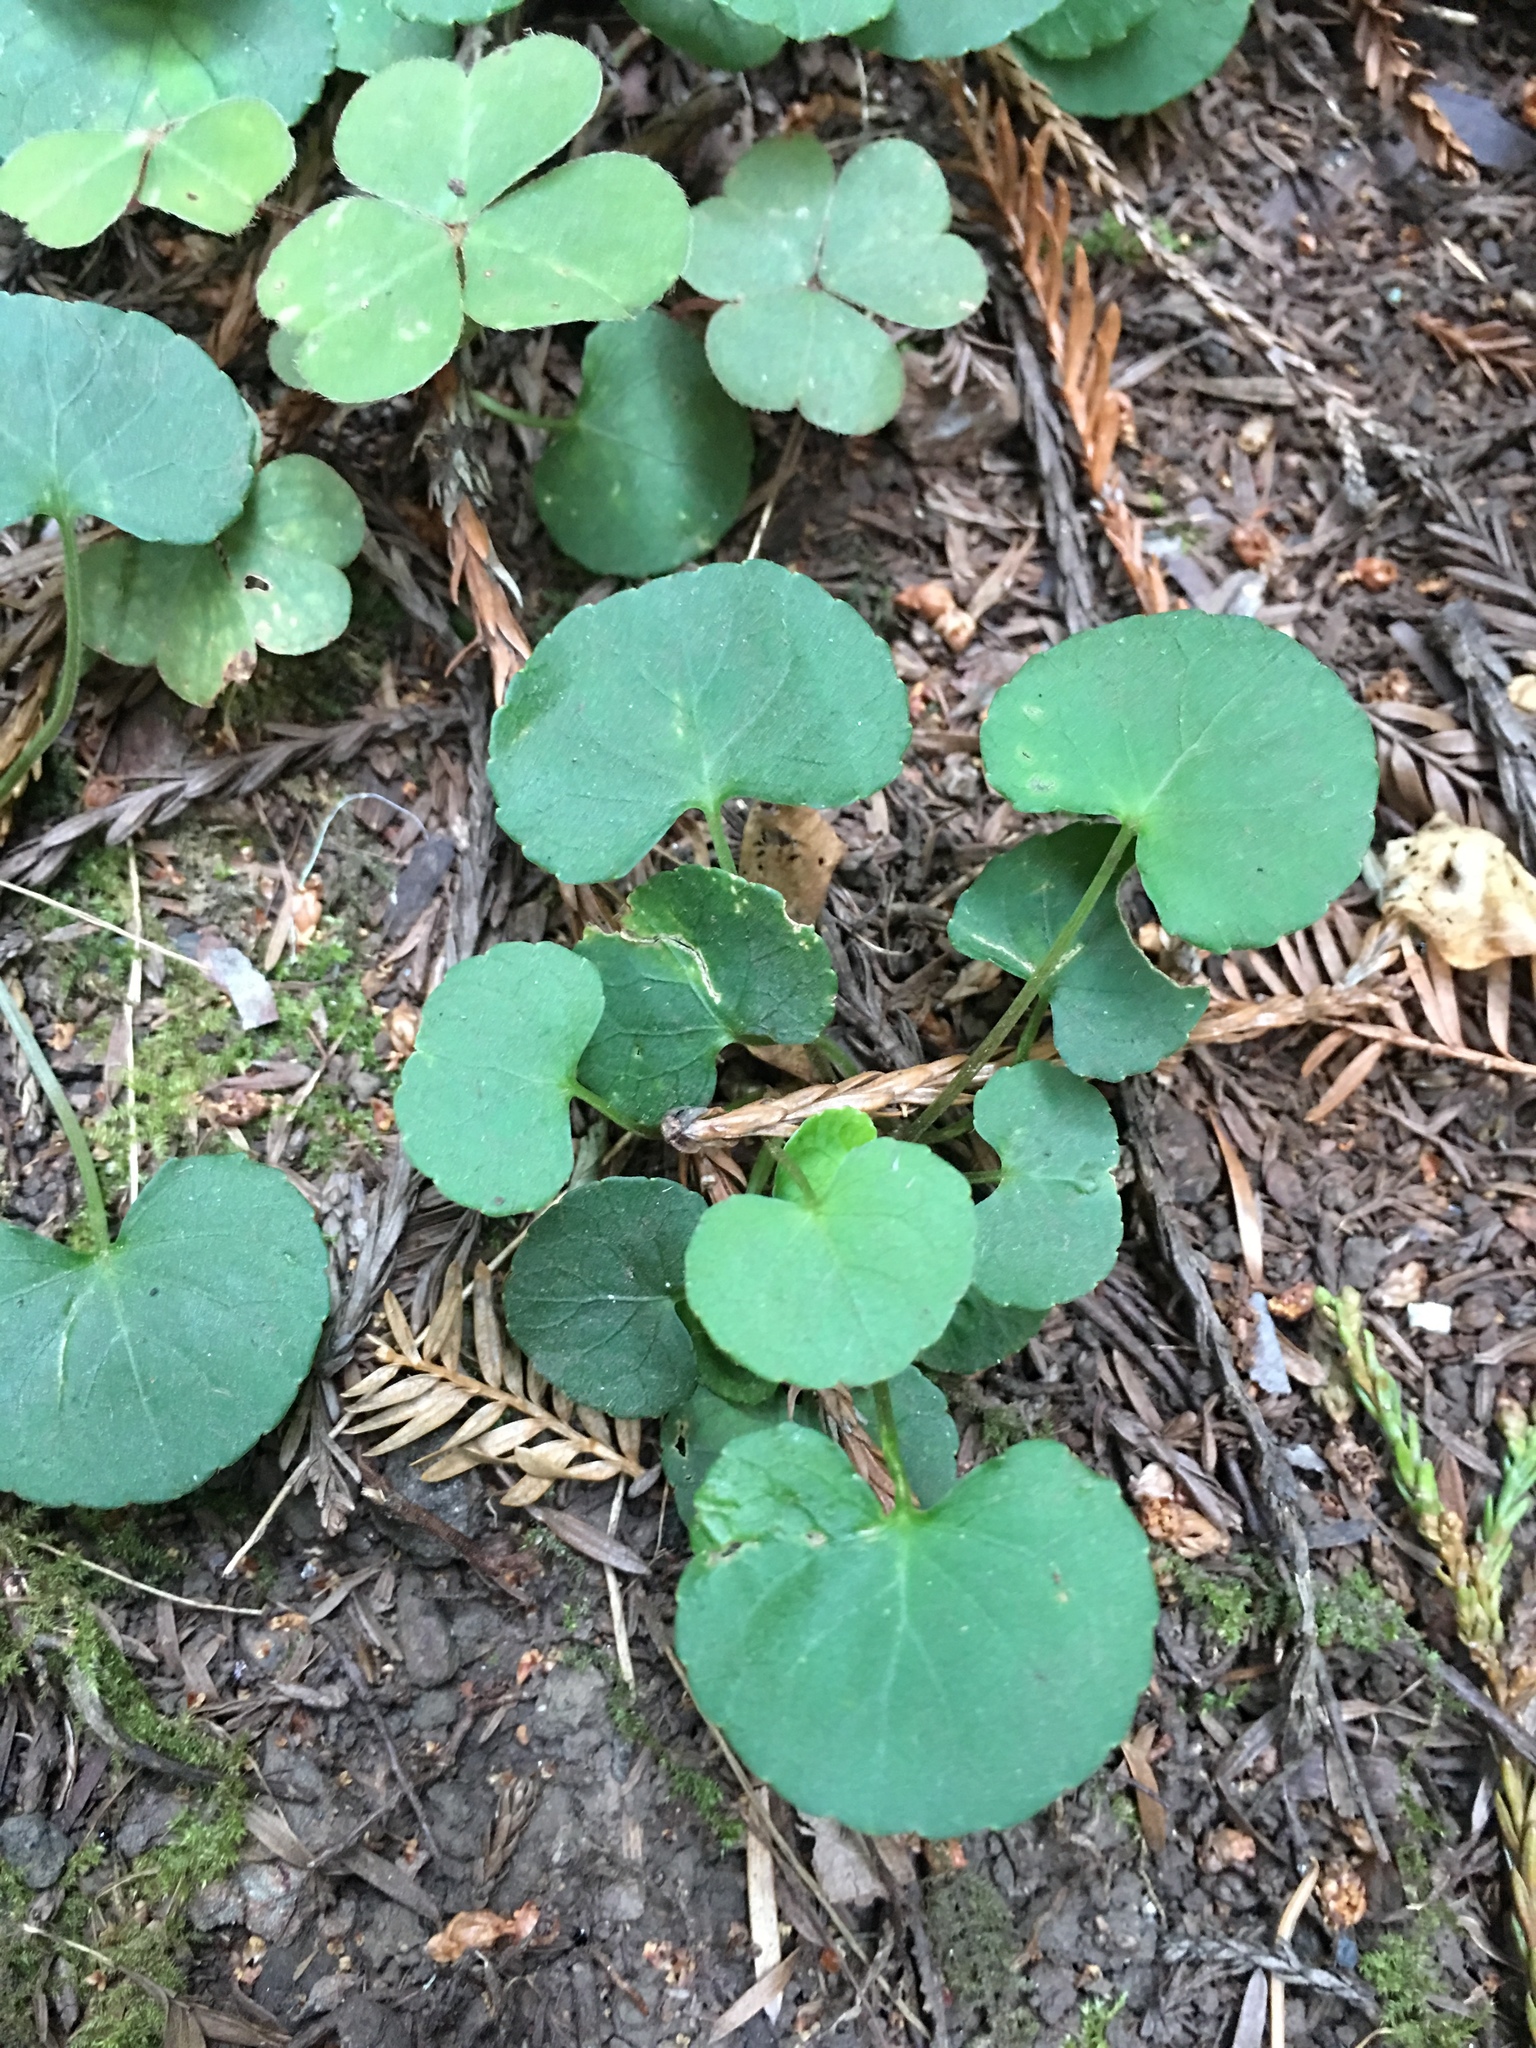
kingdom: Plantae
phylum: Tracheophyta
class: Magnoliopsida
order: Malpighiales
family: Violaceae
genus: Viola
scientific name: Viola sempervirens
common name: Evergreen violet
